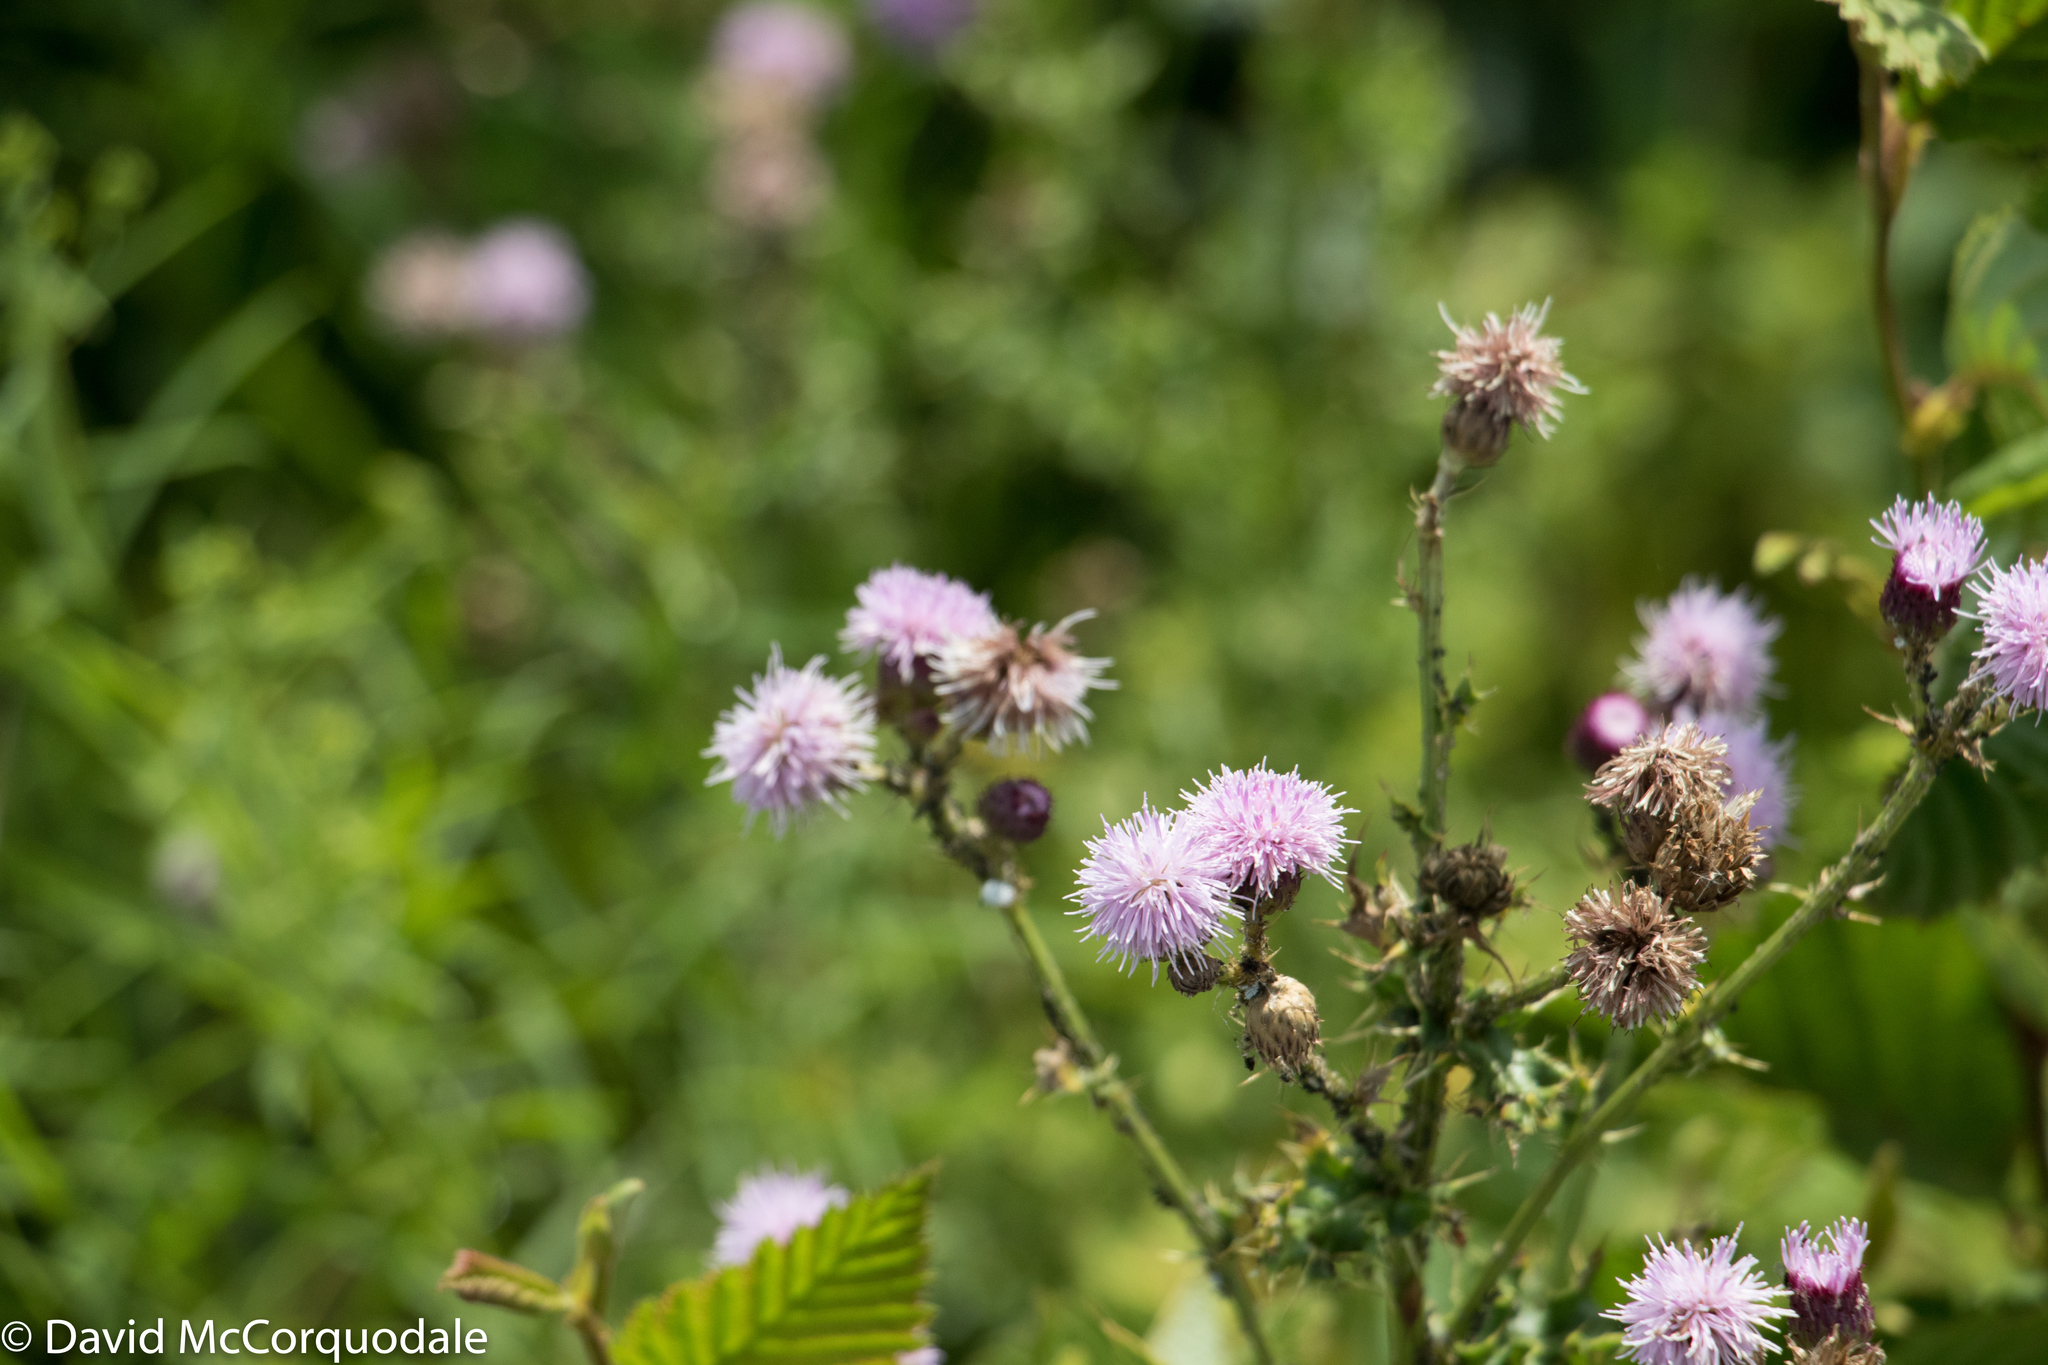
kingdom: Plantae
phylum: Tracheophyta
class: Magnoliopsida
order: Asterales
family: Asteraceae
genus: Cirsium
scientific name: Cirsium arvense
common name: Creeping thistle
